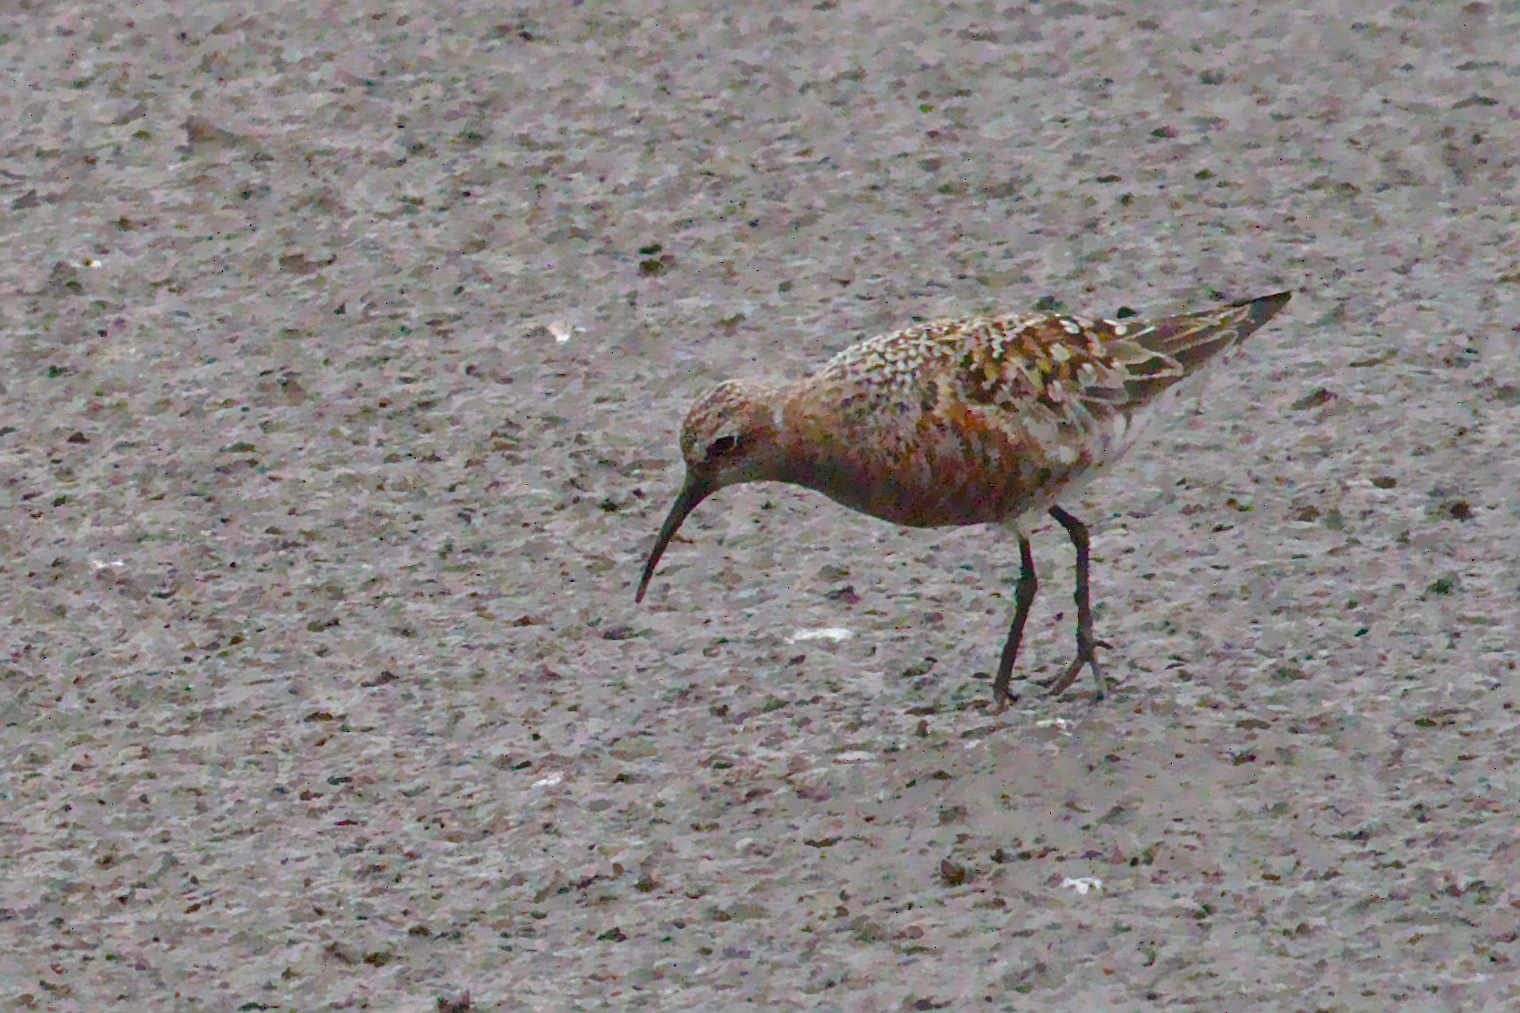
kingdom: Animalia
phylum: Chordata
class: Aves
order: Charadriiformes
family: Scolopacidae
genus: Calidris
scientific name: Calidris ferruginea
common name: Curlew sandpiper
